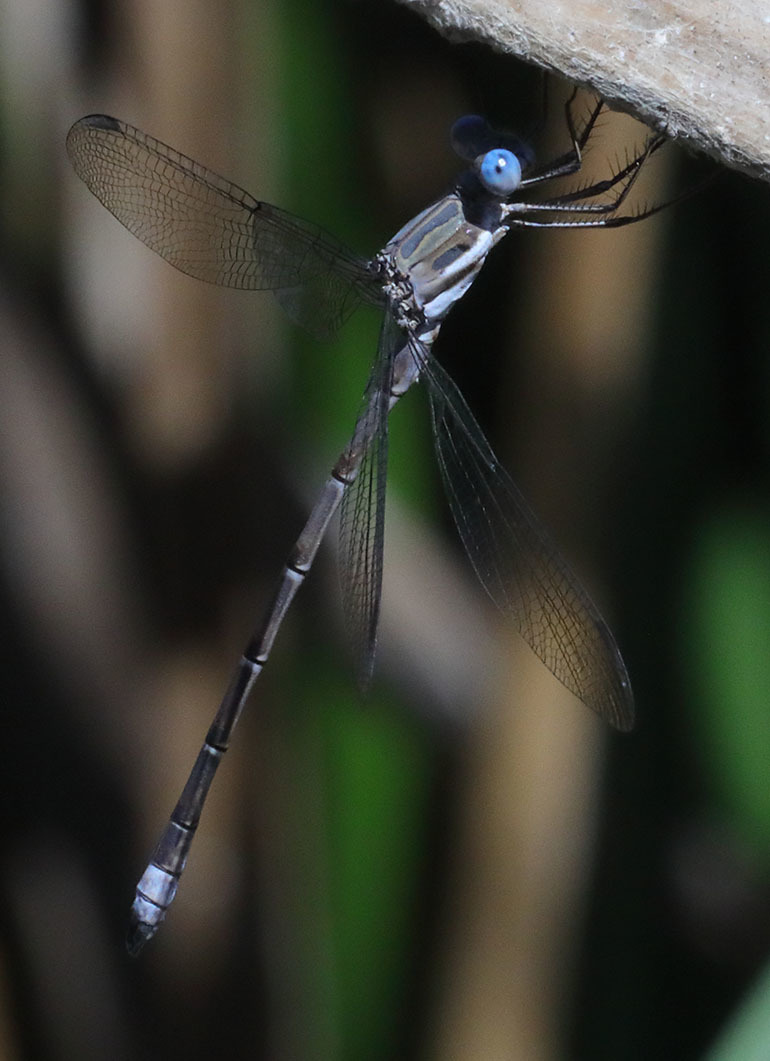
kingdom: Animalia
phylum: Arthropoda
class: Insecta
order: Odonata
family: Lestidae
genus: Archilestes
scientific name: Archilestes californicus
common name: California spreadwing
